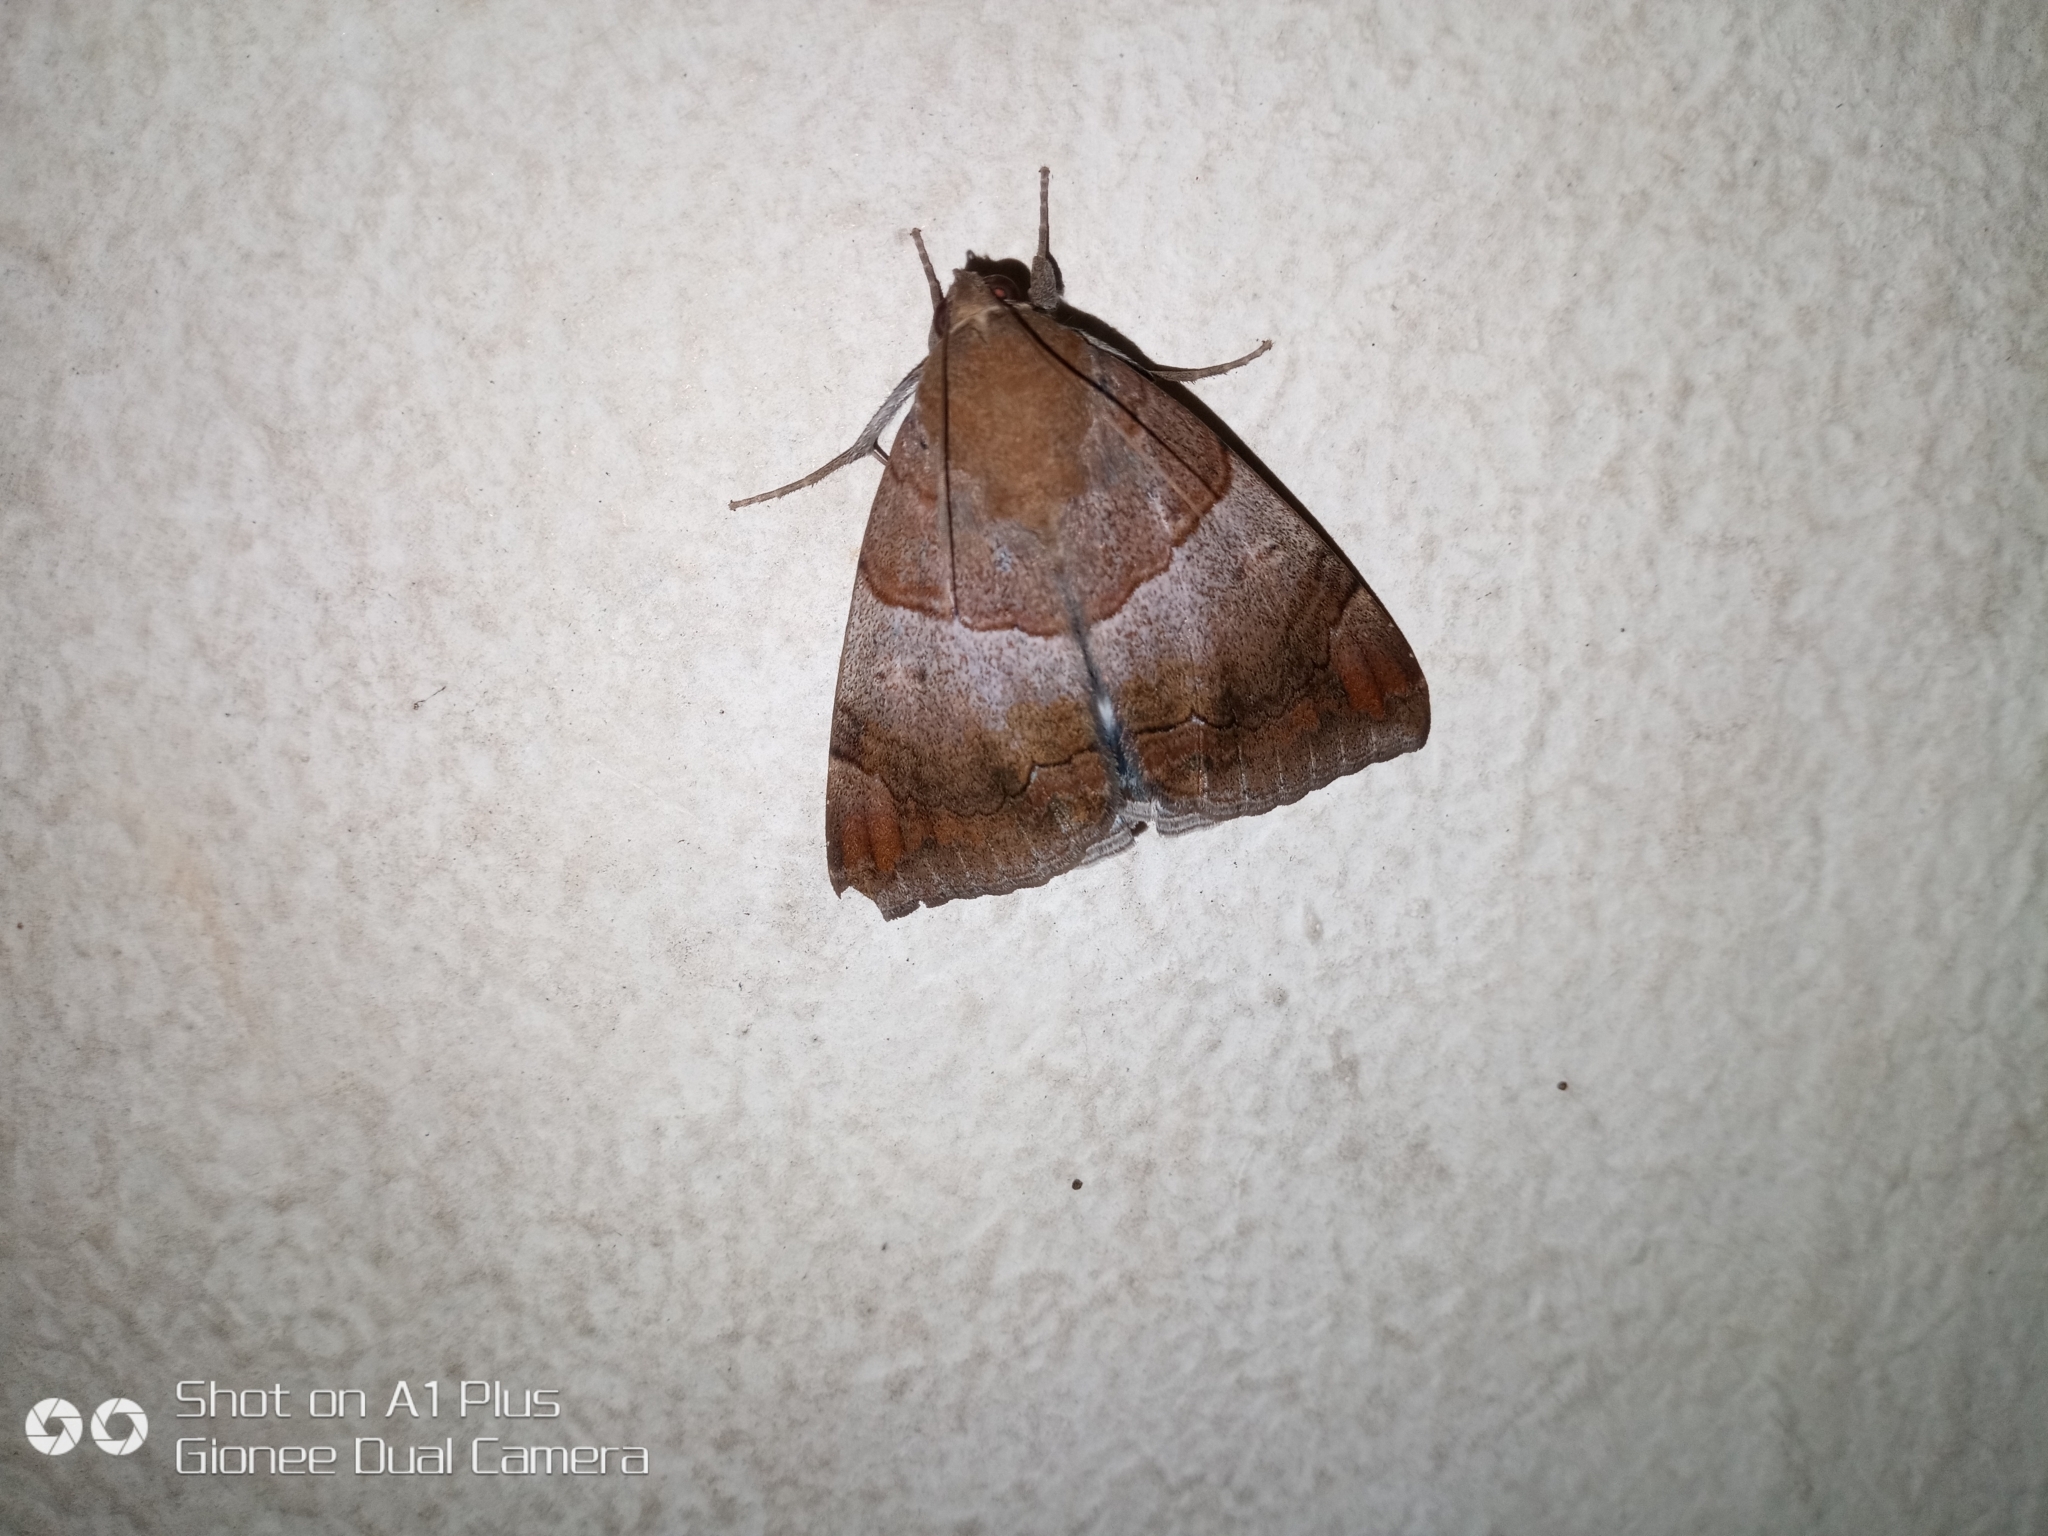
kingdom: Animalia
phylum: Arthropoda
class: Insecta
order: Lepidoptera
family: Erebidae
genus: Achaea
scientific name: Achaea janata
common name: Croton caterpillar
